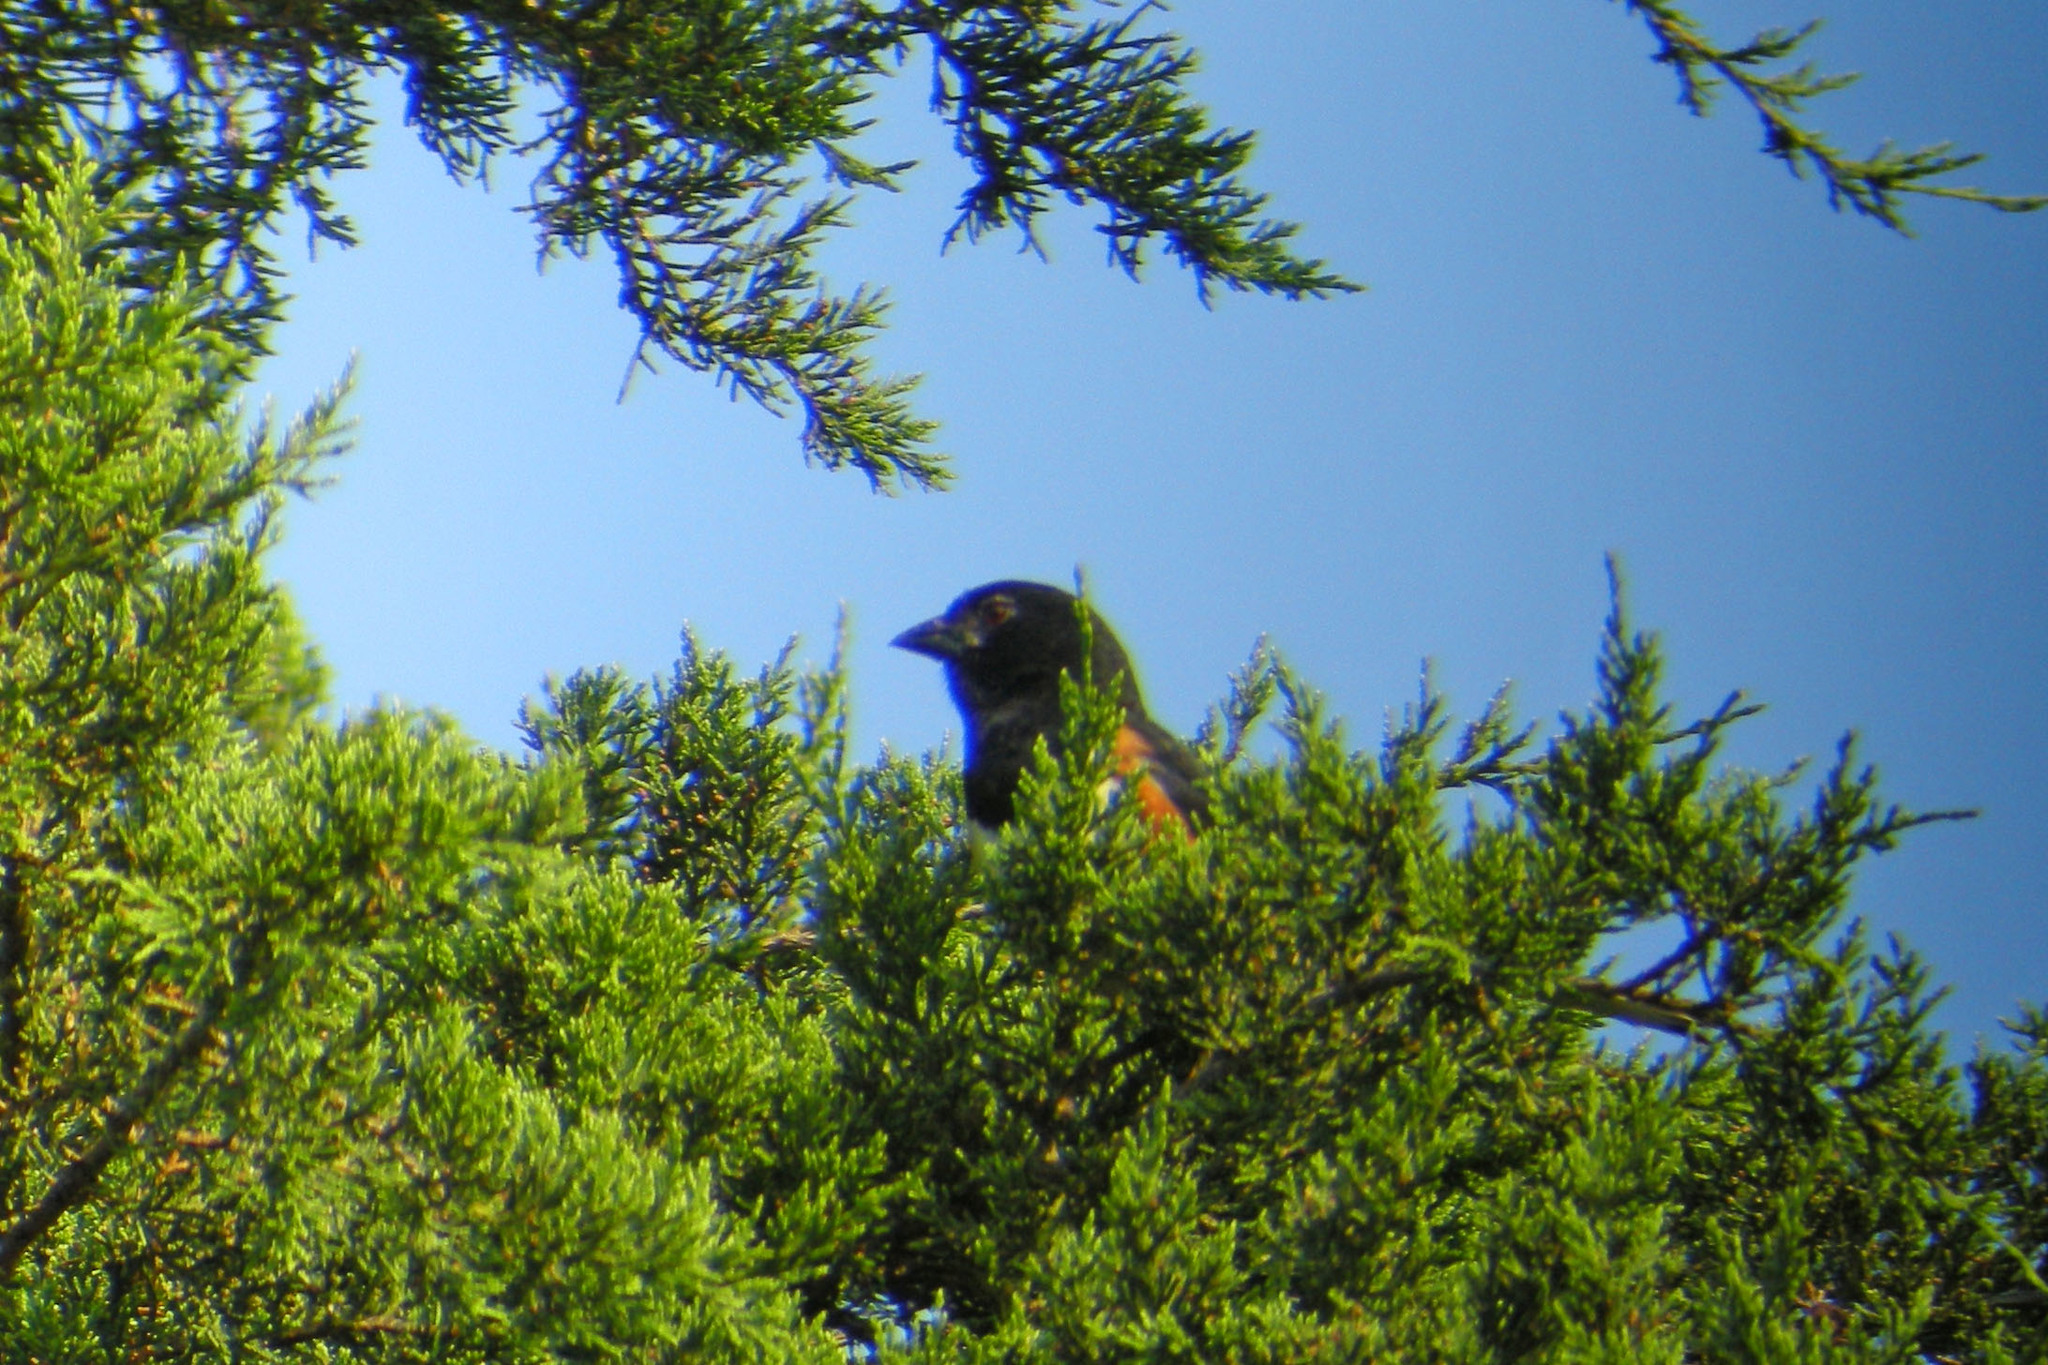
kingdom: Animalia
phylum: Chordata
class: Aves
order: Passeriformes
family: Passerellidae
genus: Pipilo
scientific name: Pipilo erythrophthalmus
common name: Eastern towhee
